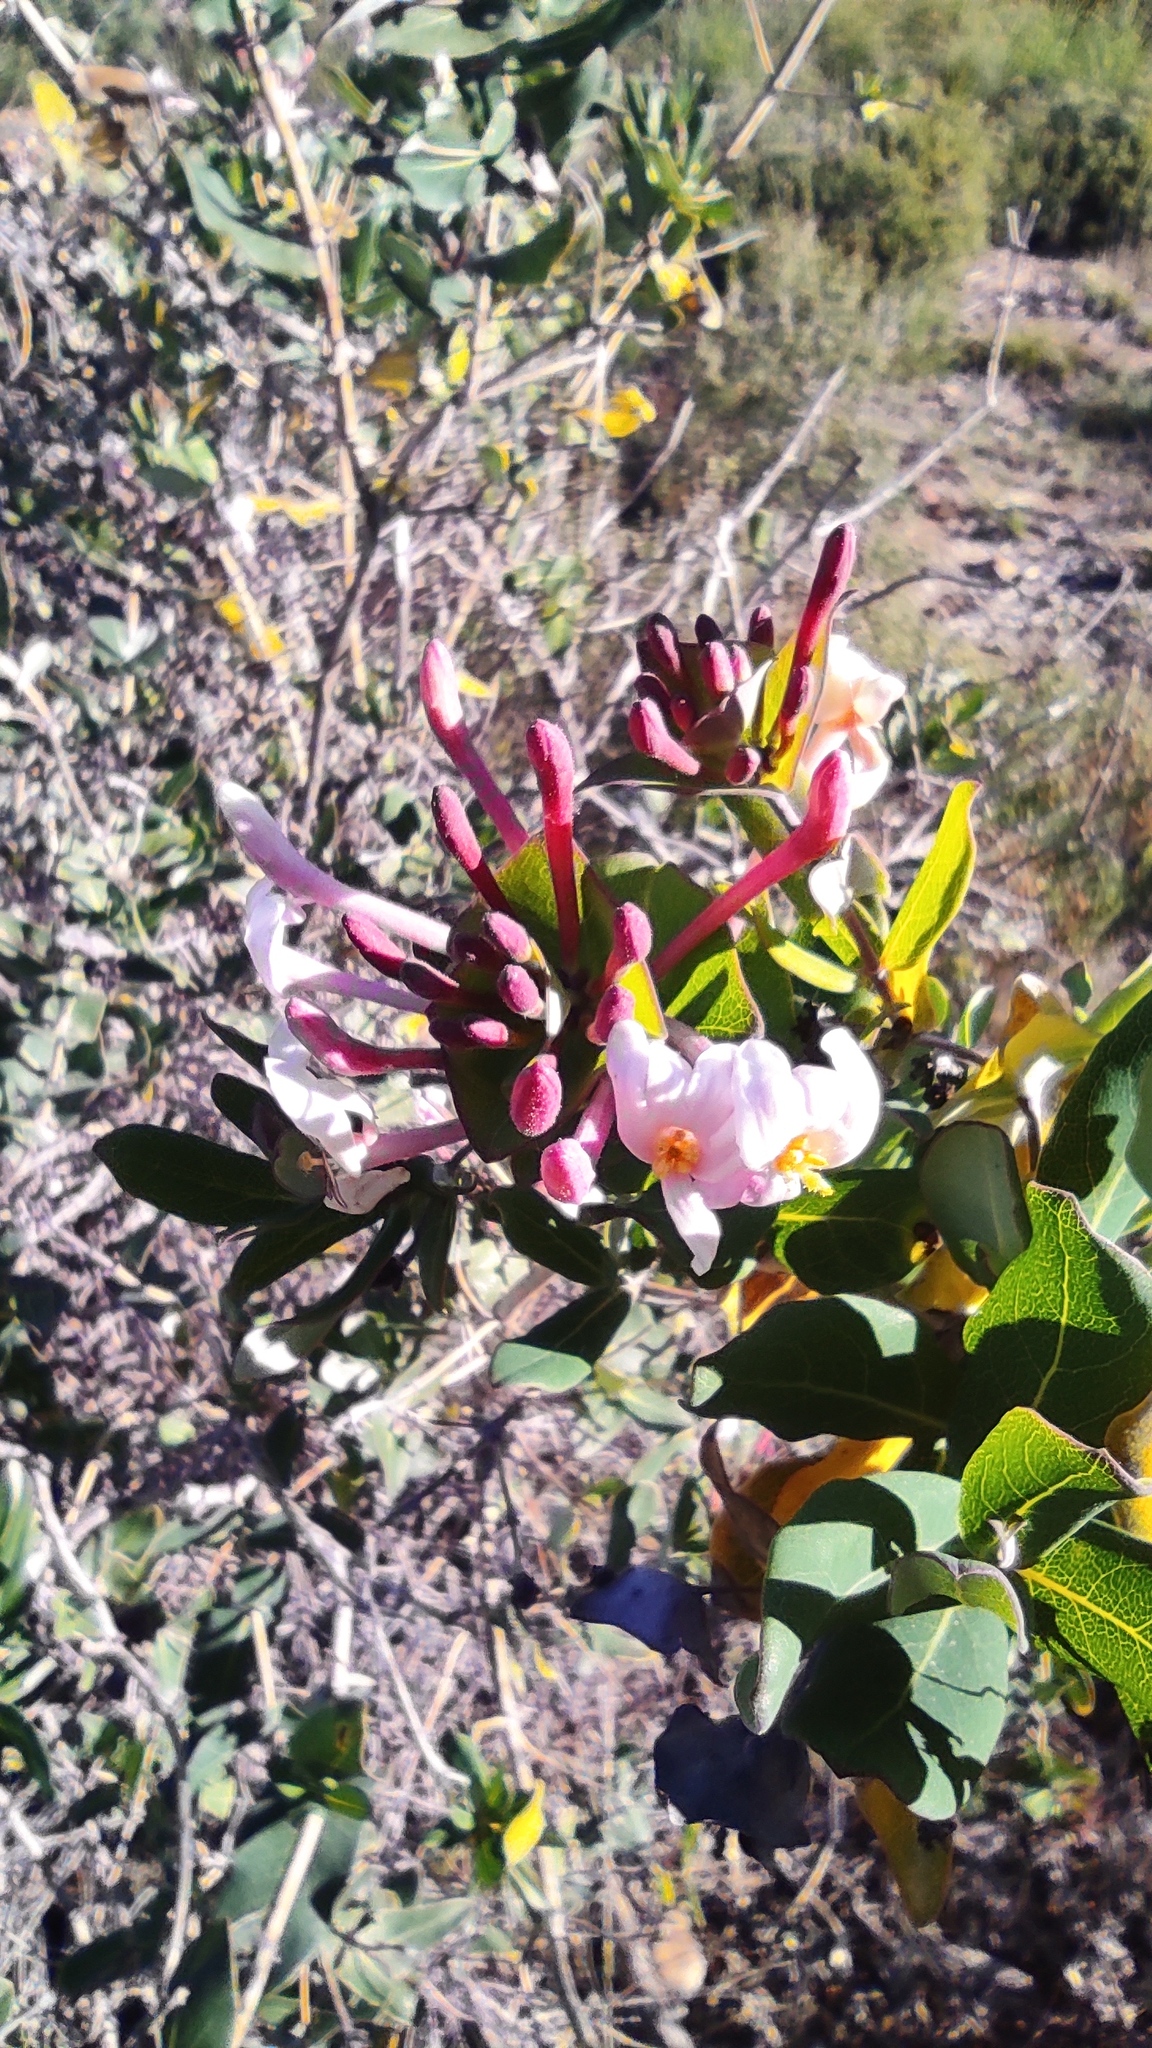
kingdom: Plantae
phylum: Tracheophyta
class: Magnoliopsida
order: Dipsacales
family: Caprifoliaceae
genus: Lonicera
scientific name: Lonicera implexa
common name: Minorca honeysuckle
